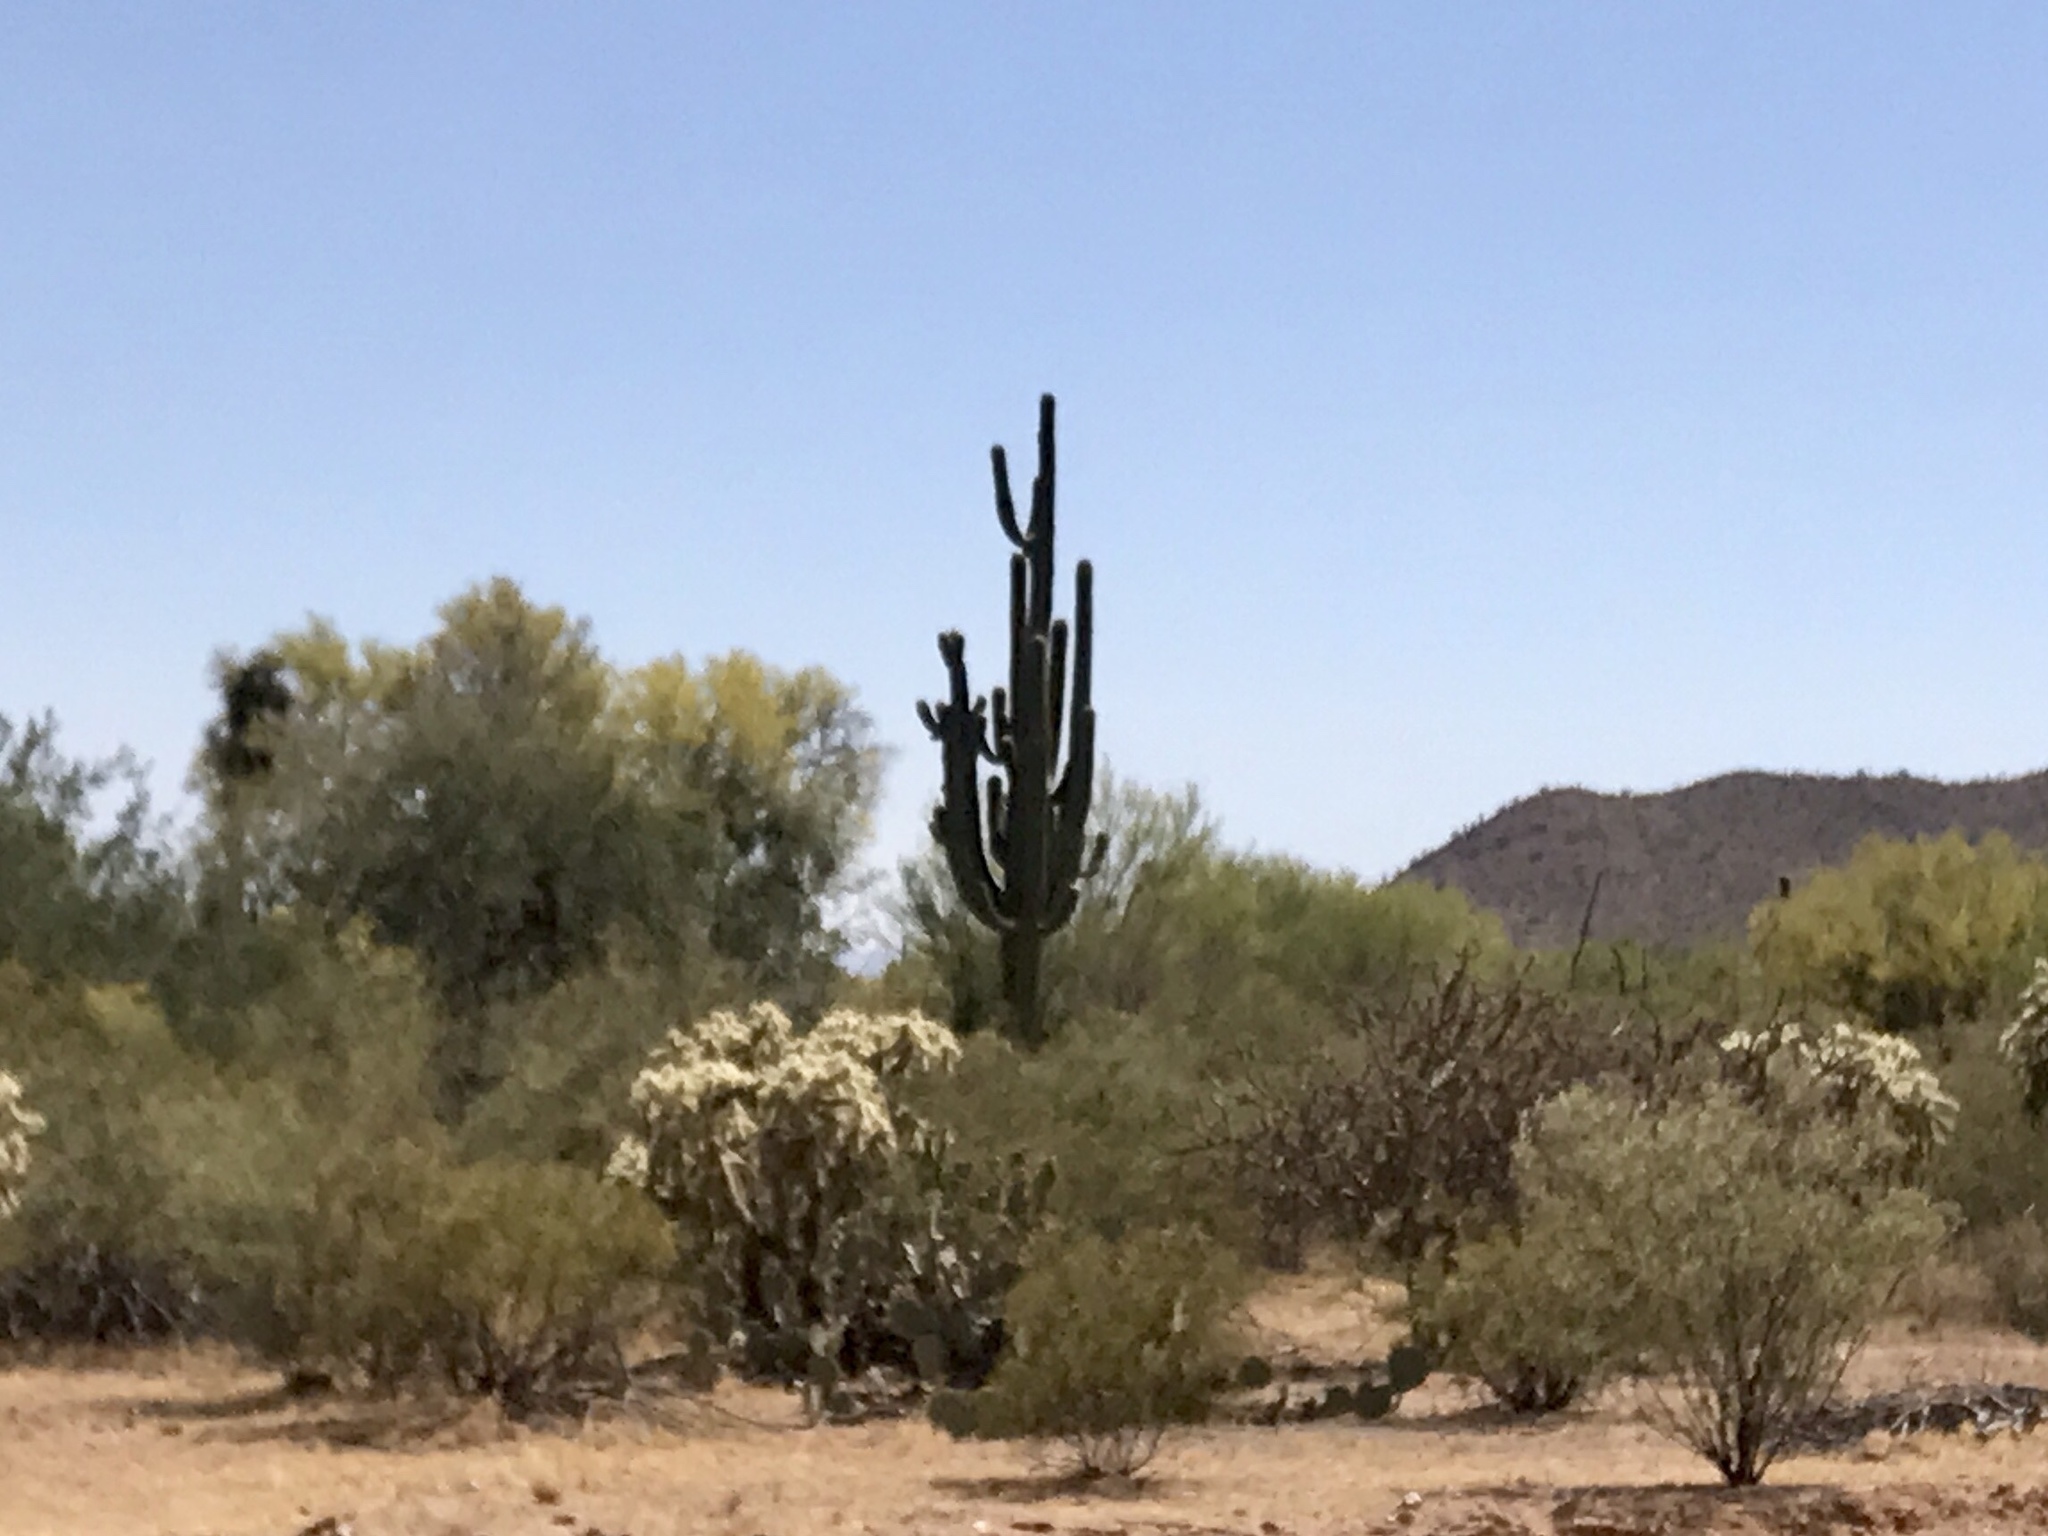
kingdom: Plantae
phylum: Tracheophyta
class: Magnoliopsida
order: Zygophyllales
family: Zygophyllaceae
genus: Larrea
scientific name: Larrea tridentata
